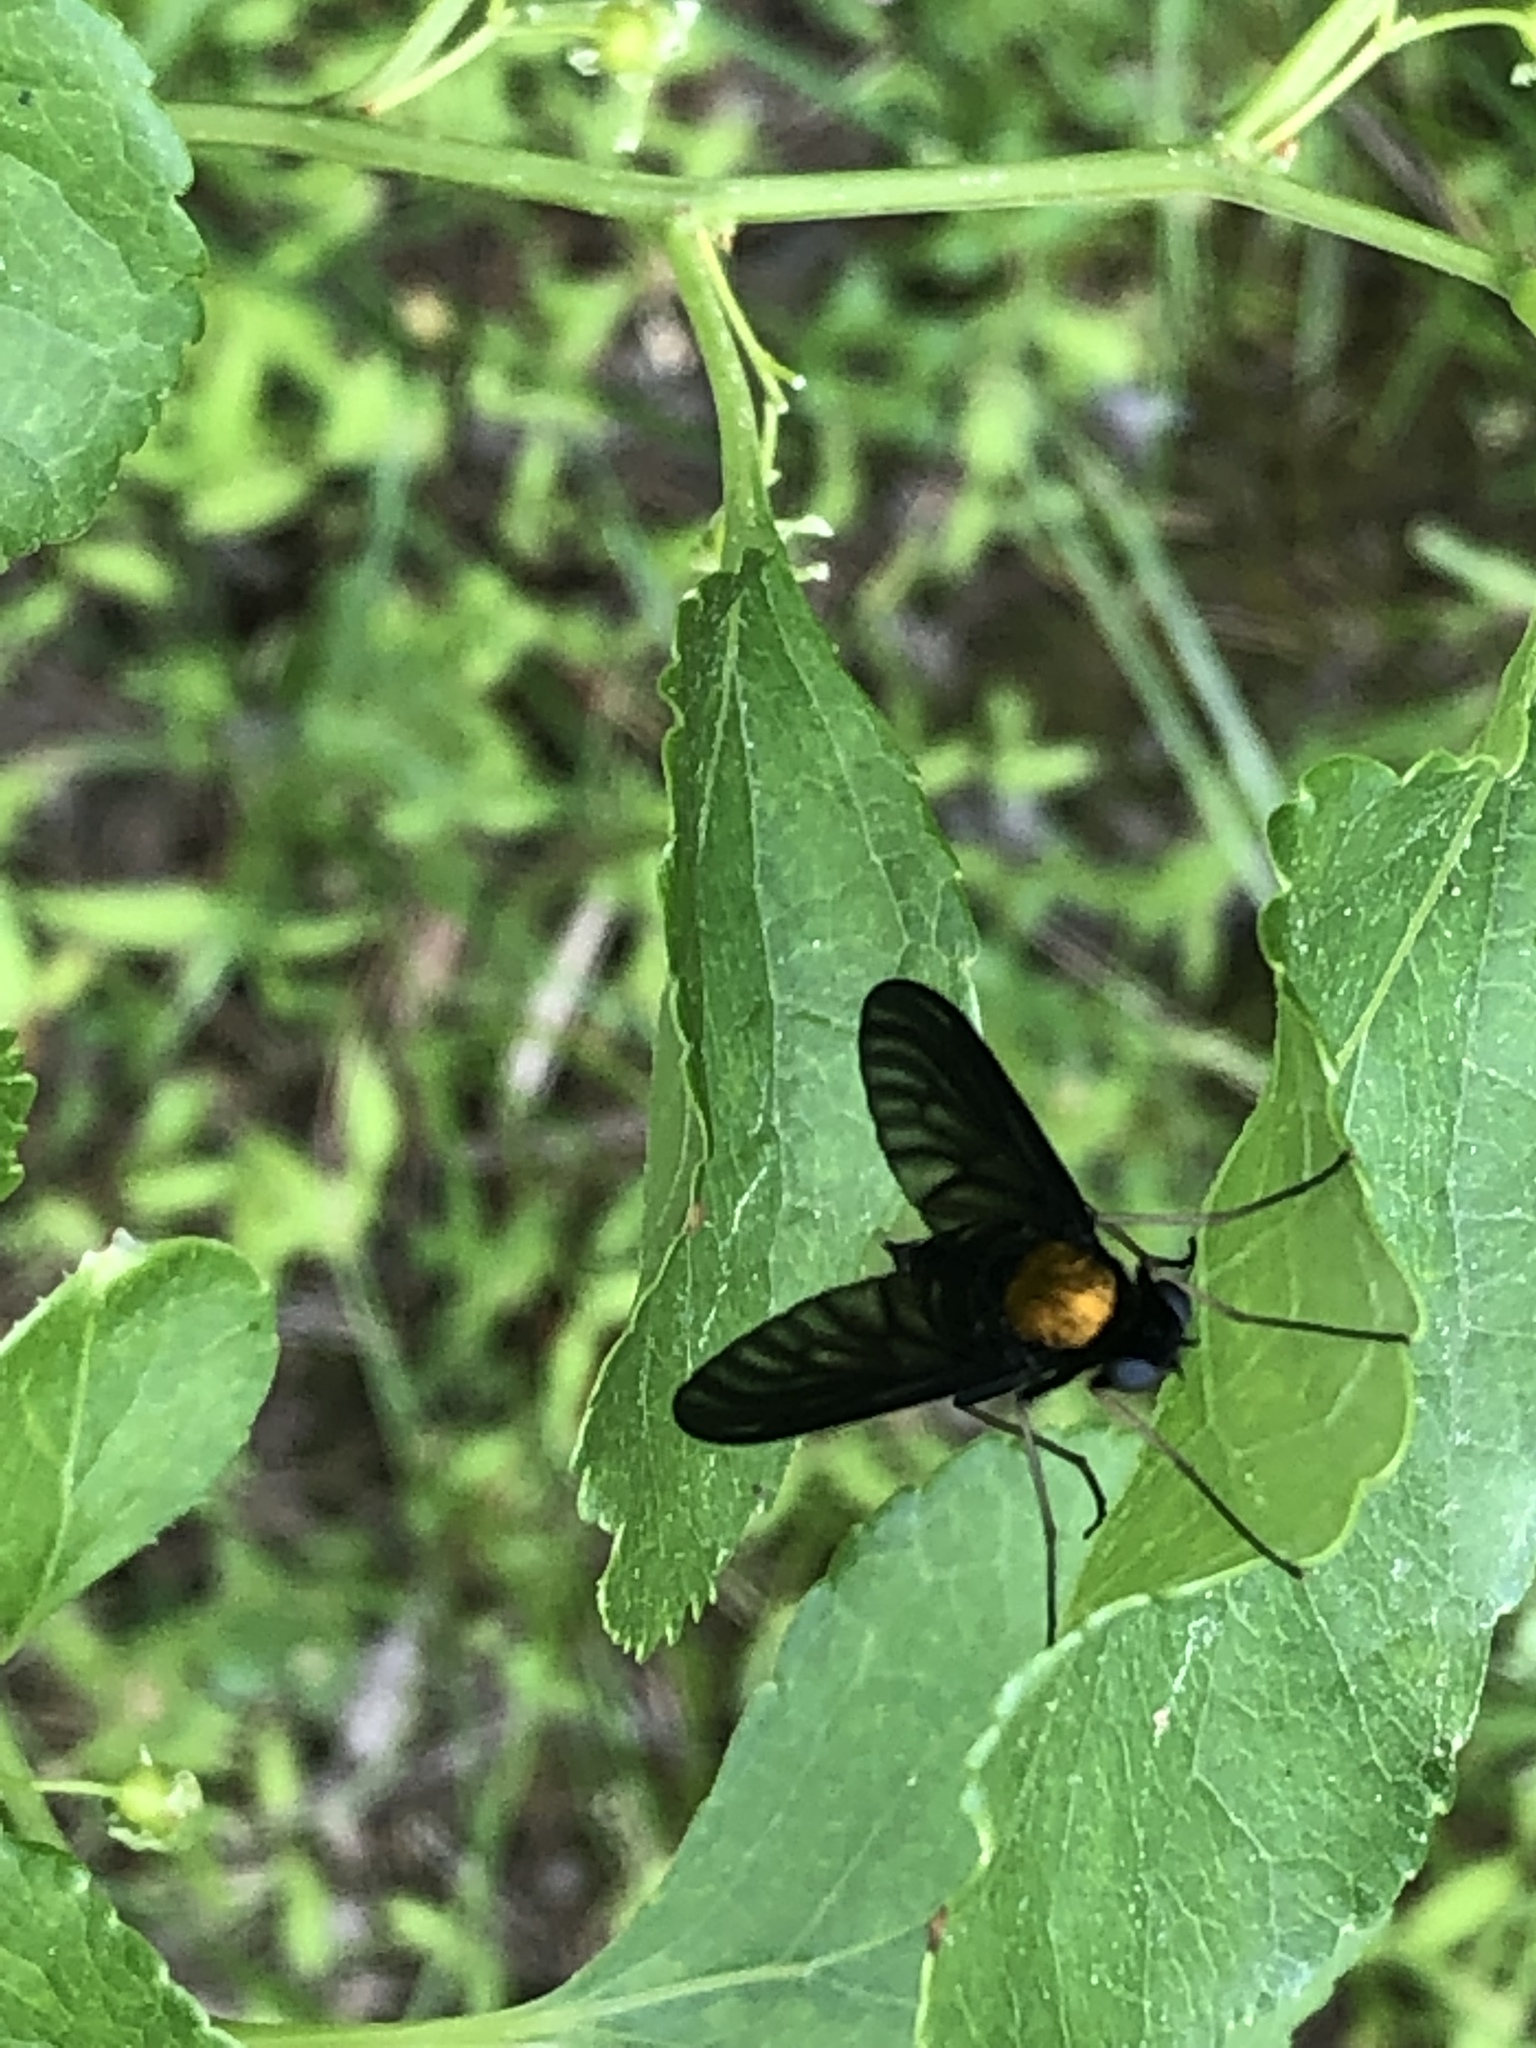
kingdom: Animalia
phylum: Arthropoda
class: Insecta
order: Diptera
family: Rhagionidae
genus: Chrysopilus
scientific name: Chrysopilus thoracicus
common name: Golden-backed snipe fly
